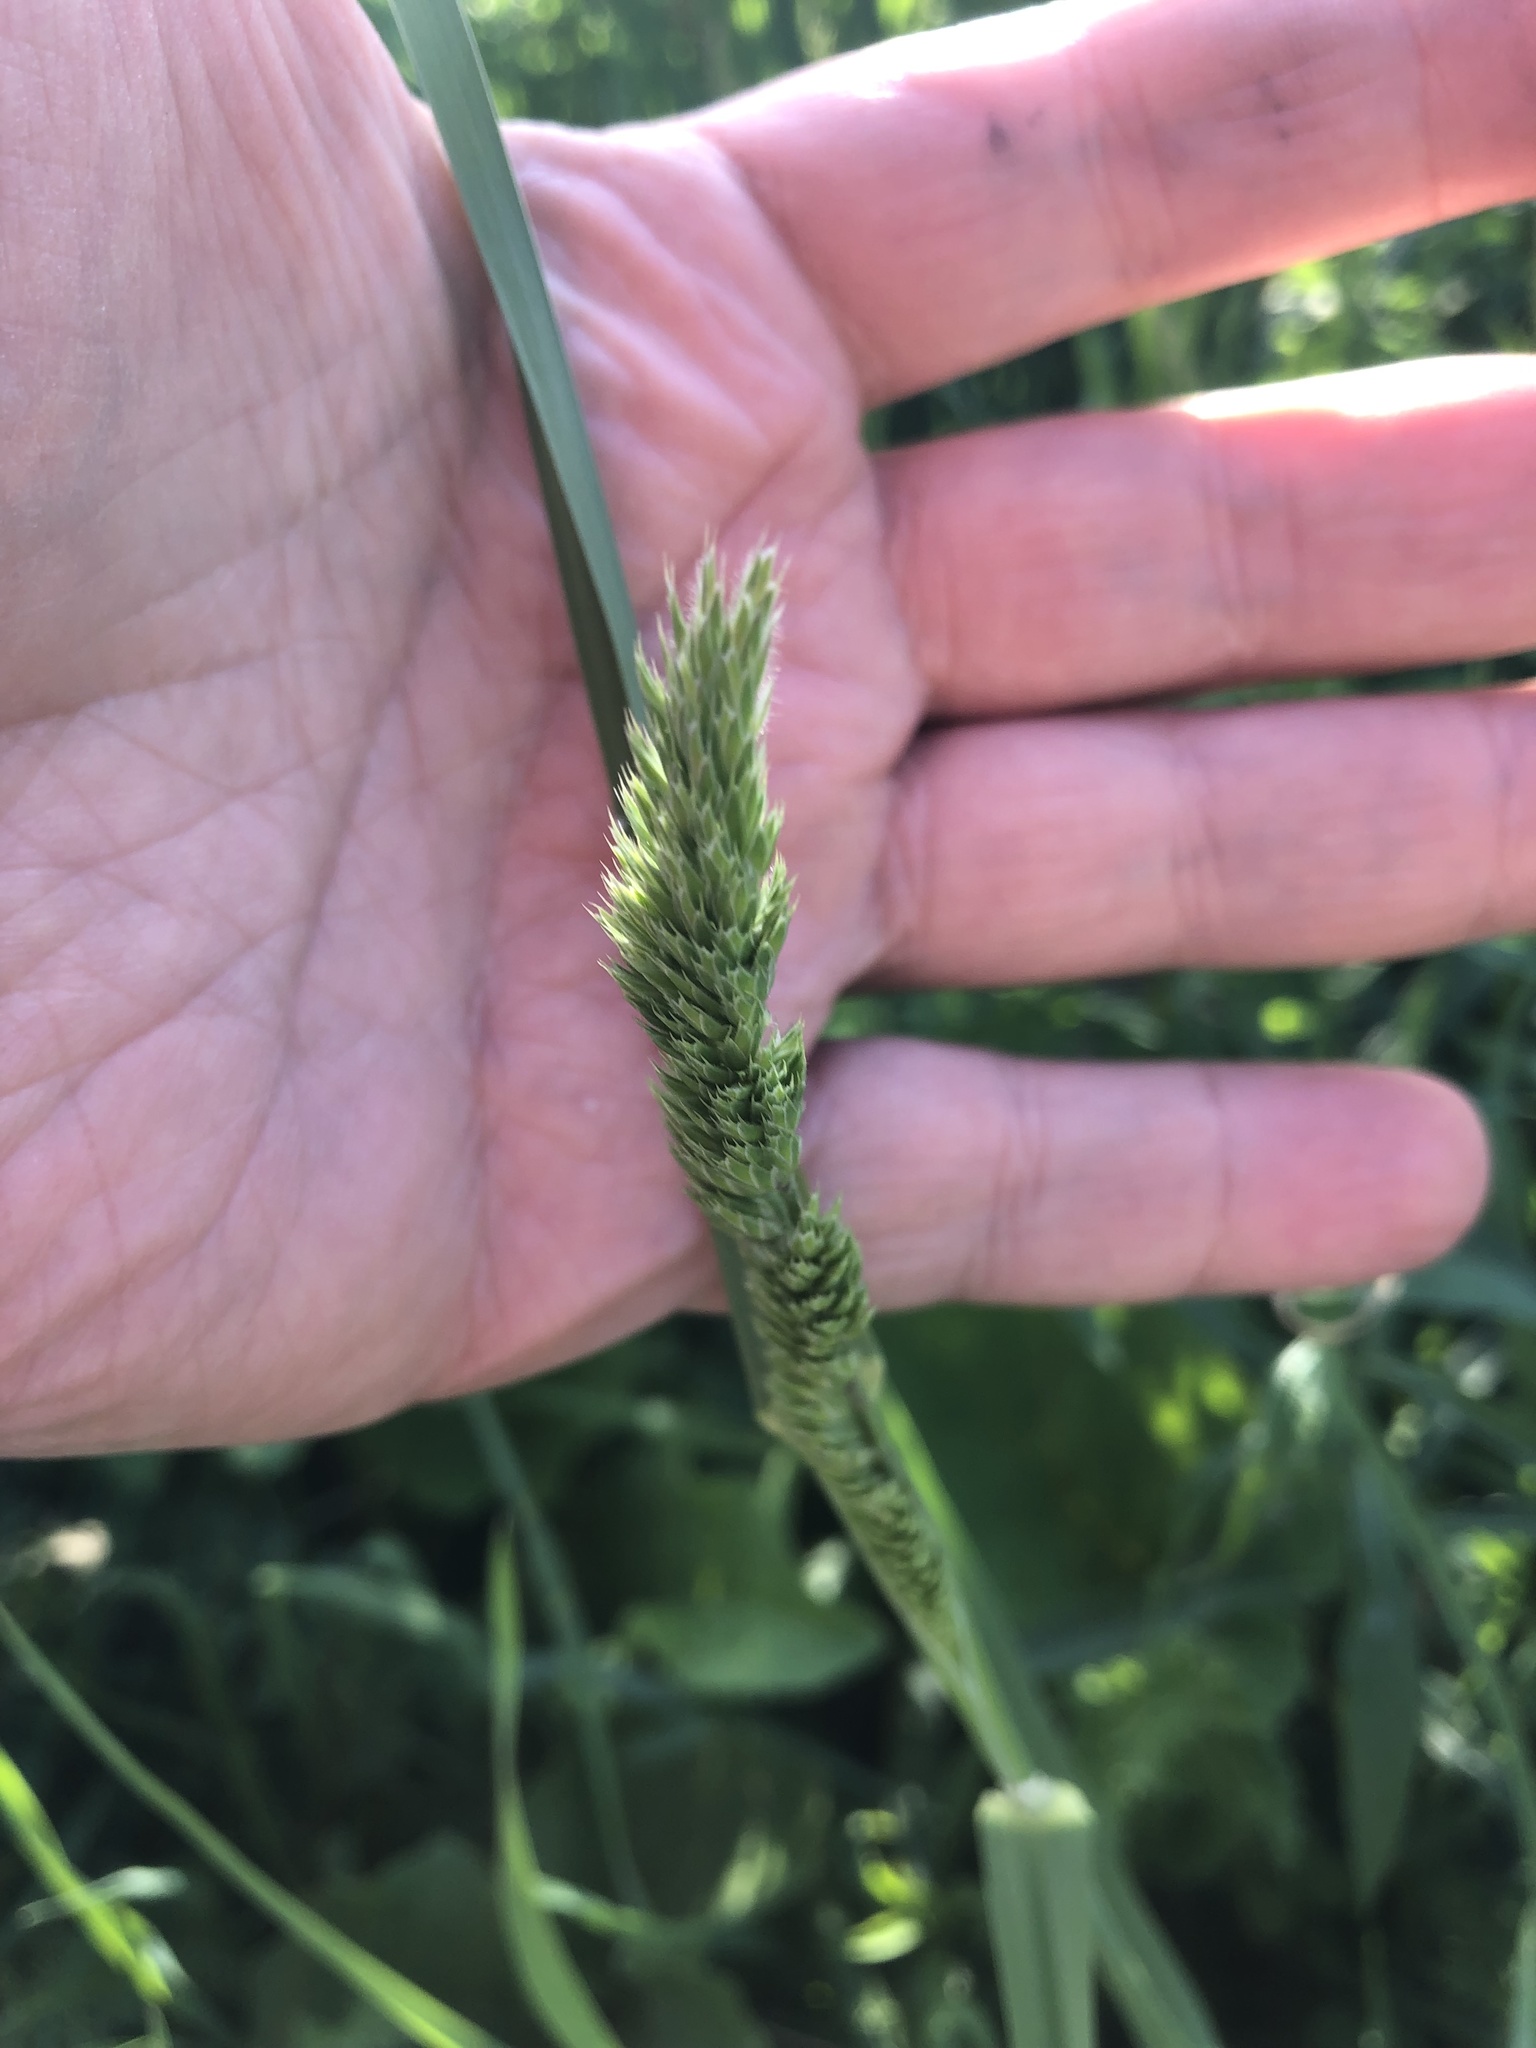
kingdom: Plantae
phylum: Tracheophyta
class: Liliopsida
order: Poales
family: Poaceae
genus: Dactylis
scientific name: Dactylis glomerata
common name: Orchardgrass
